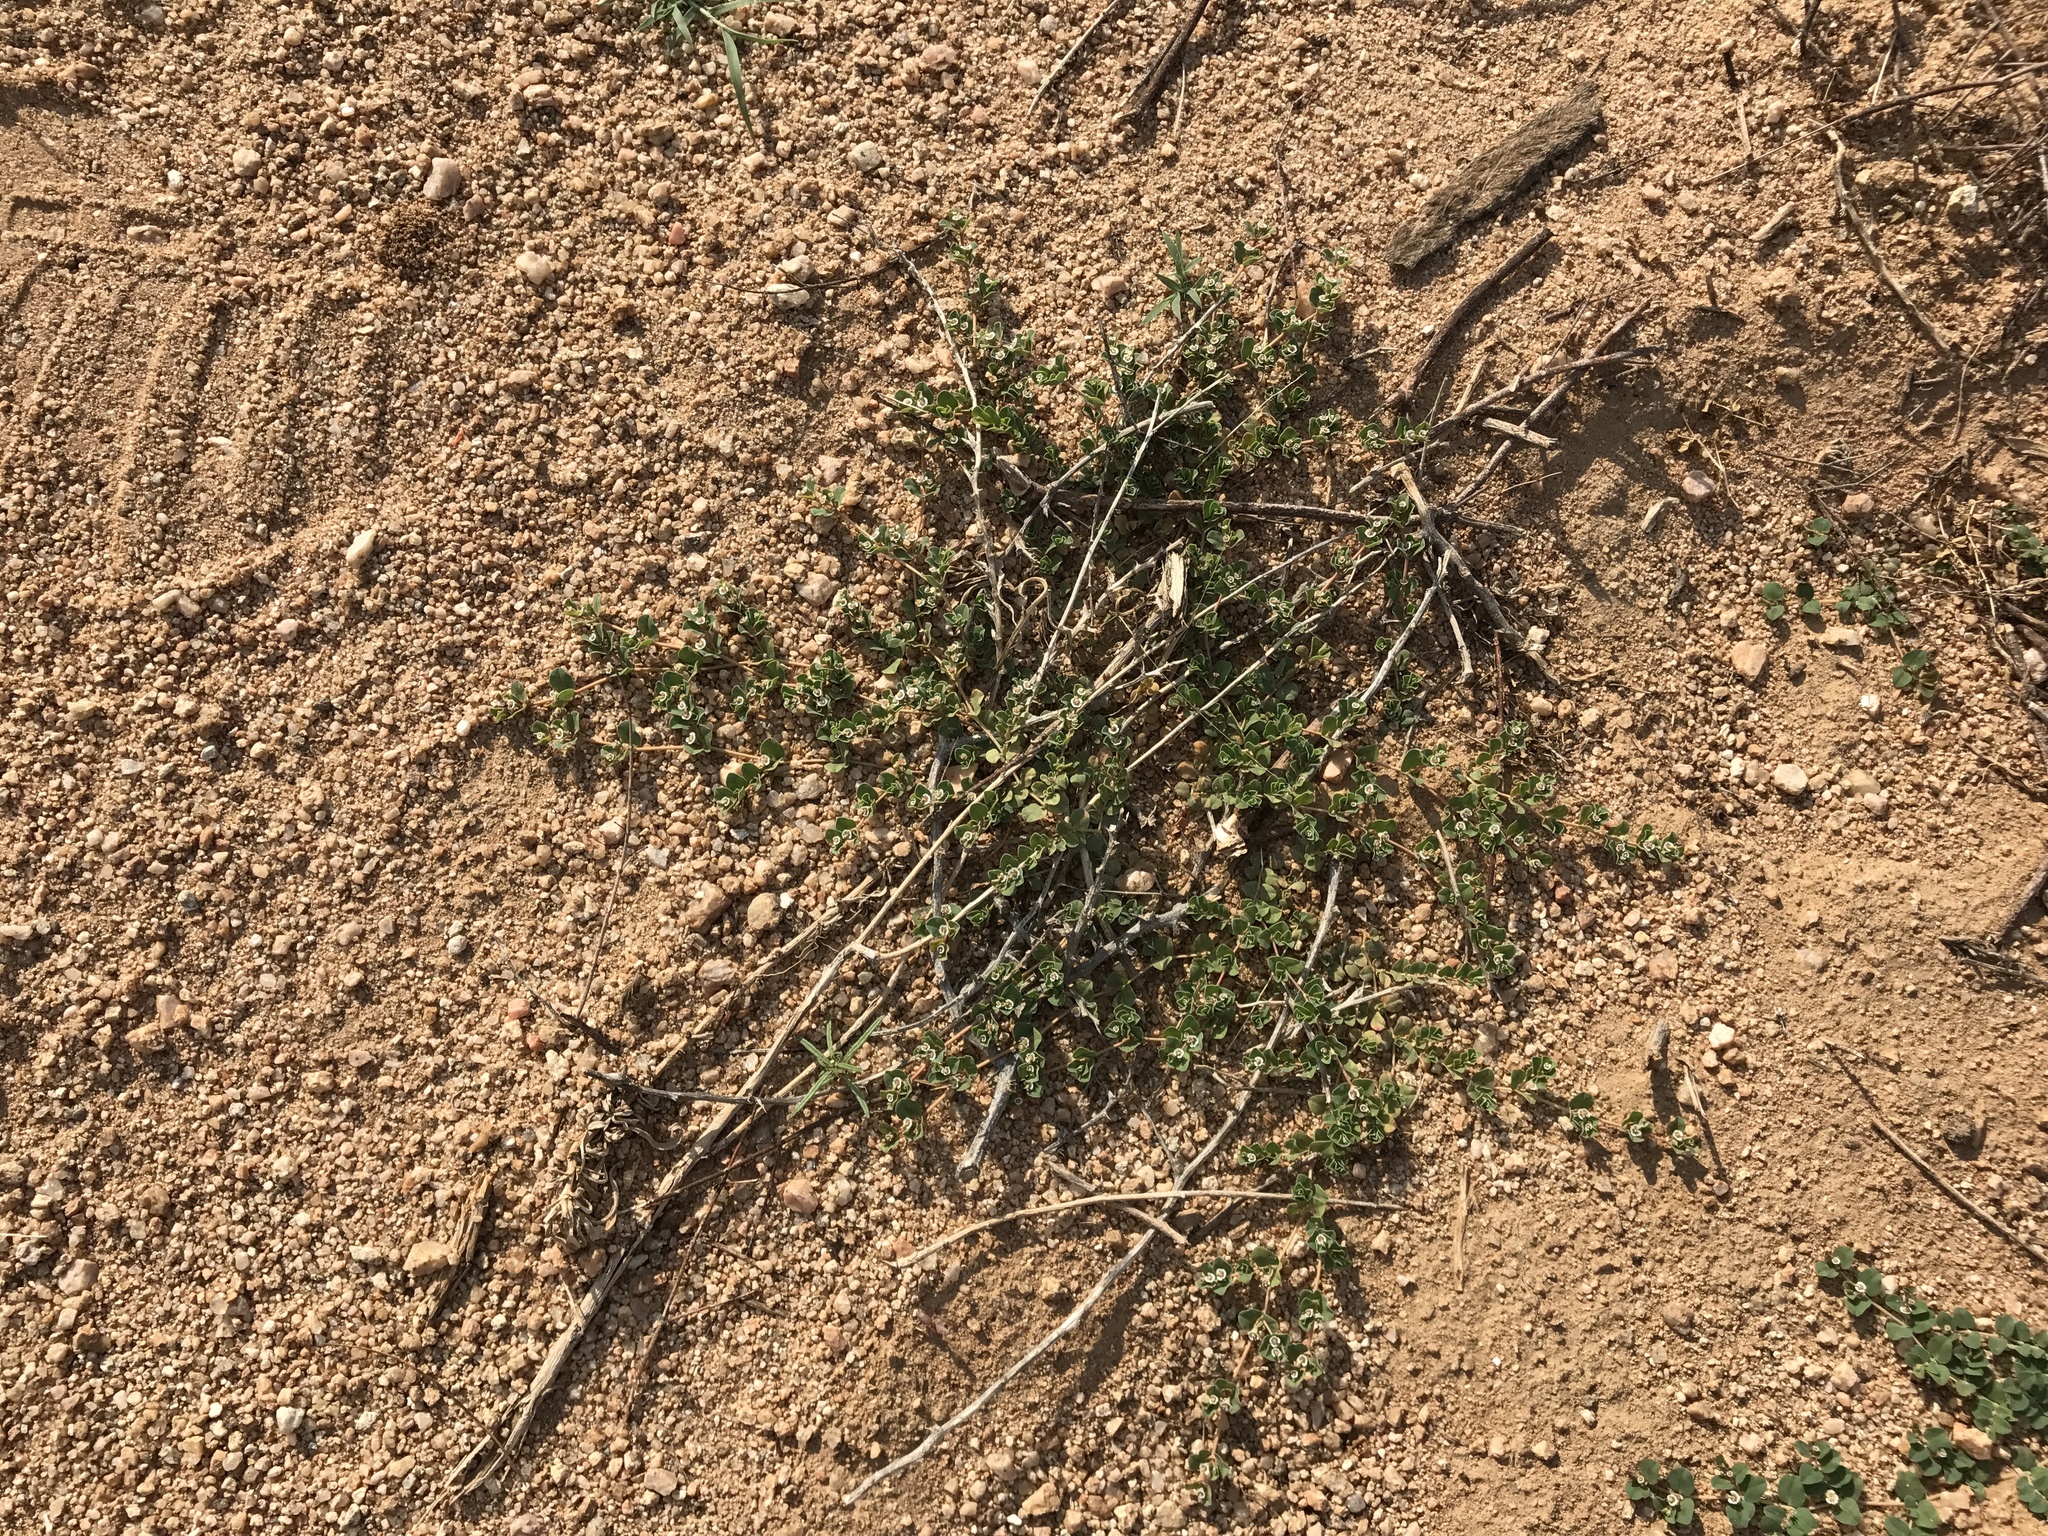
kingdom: Plantae
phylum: Tracheophyta
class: Magnoliopsida
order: Malpighiales
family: Euphorbiaceae
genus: Euphorbia
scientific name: Euphorbia albomarginata
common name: Whitemargin sandmat
